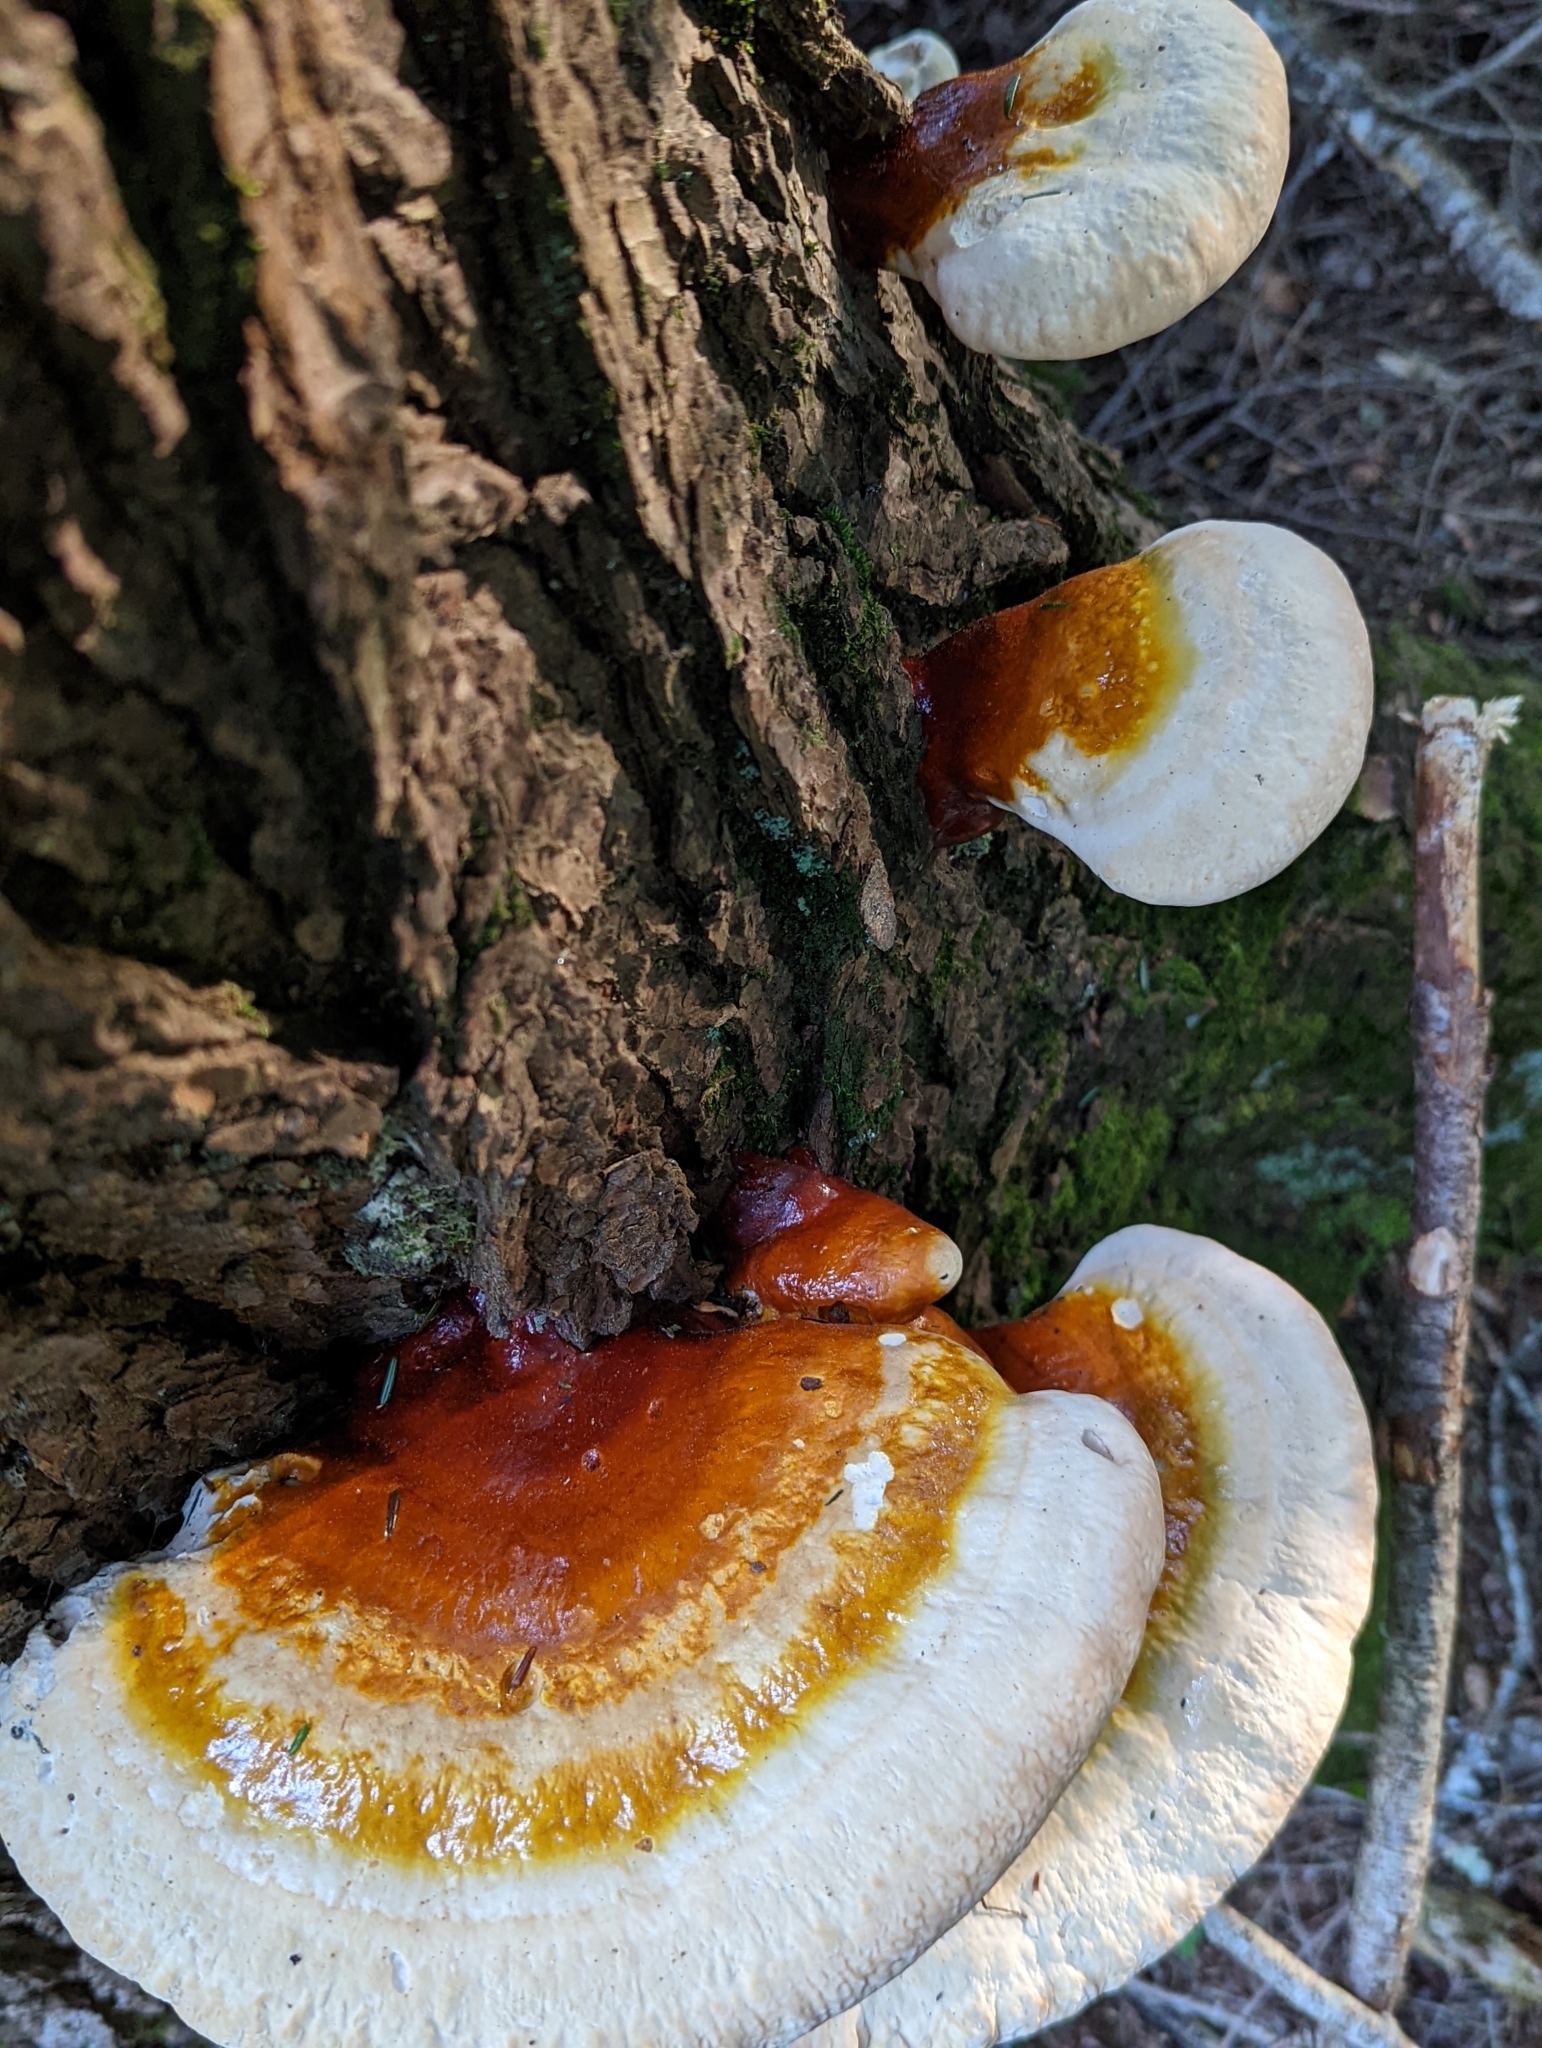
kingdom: Fungi
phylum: Basidiomycota
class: Agaricomycetes
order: Polyporales
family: Polyporaceae
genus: Ganoderma
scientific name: Ganoderma tsugae
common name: Hemlock varnish shelf
